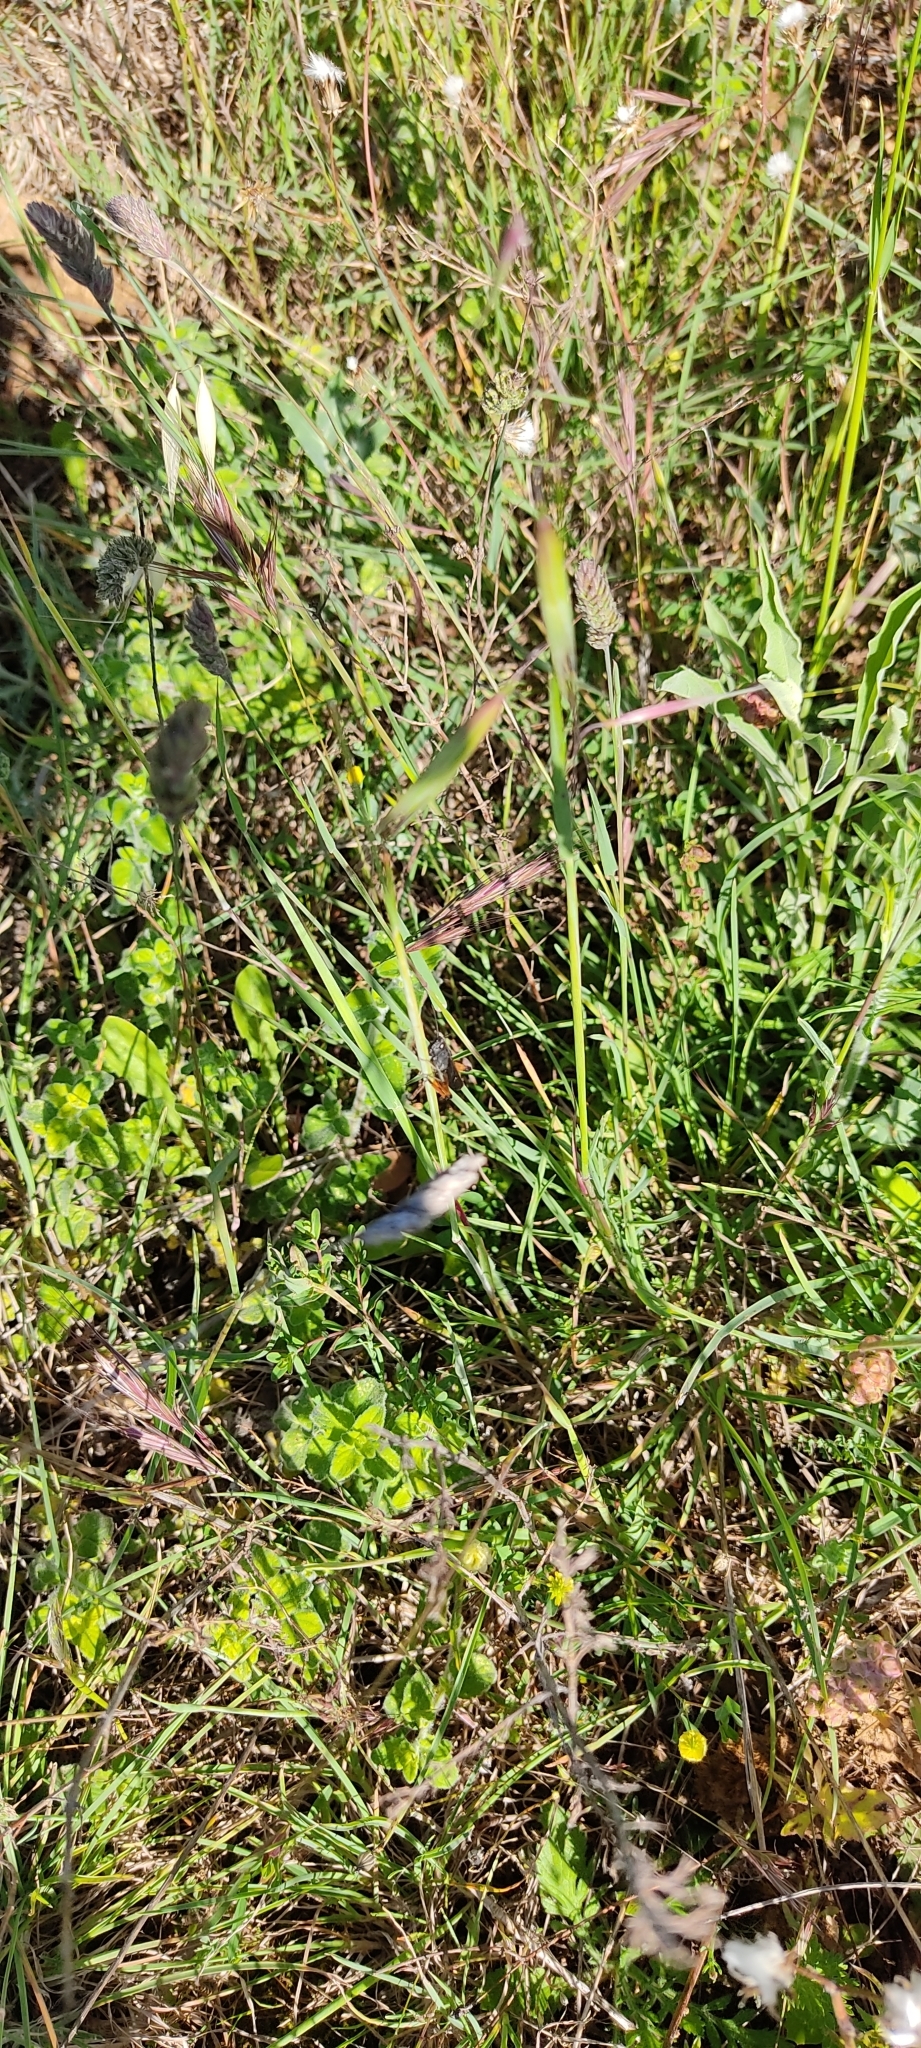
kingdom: Animalia
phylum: Arthropoda
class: Insecta
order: Orthoptera
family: Acrididae
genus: Omocestus
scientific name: Omocestus rufipes
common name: Woodland grasshopper
